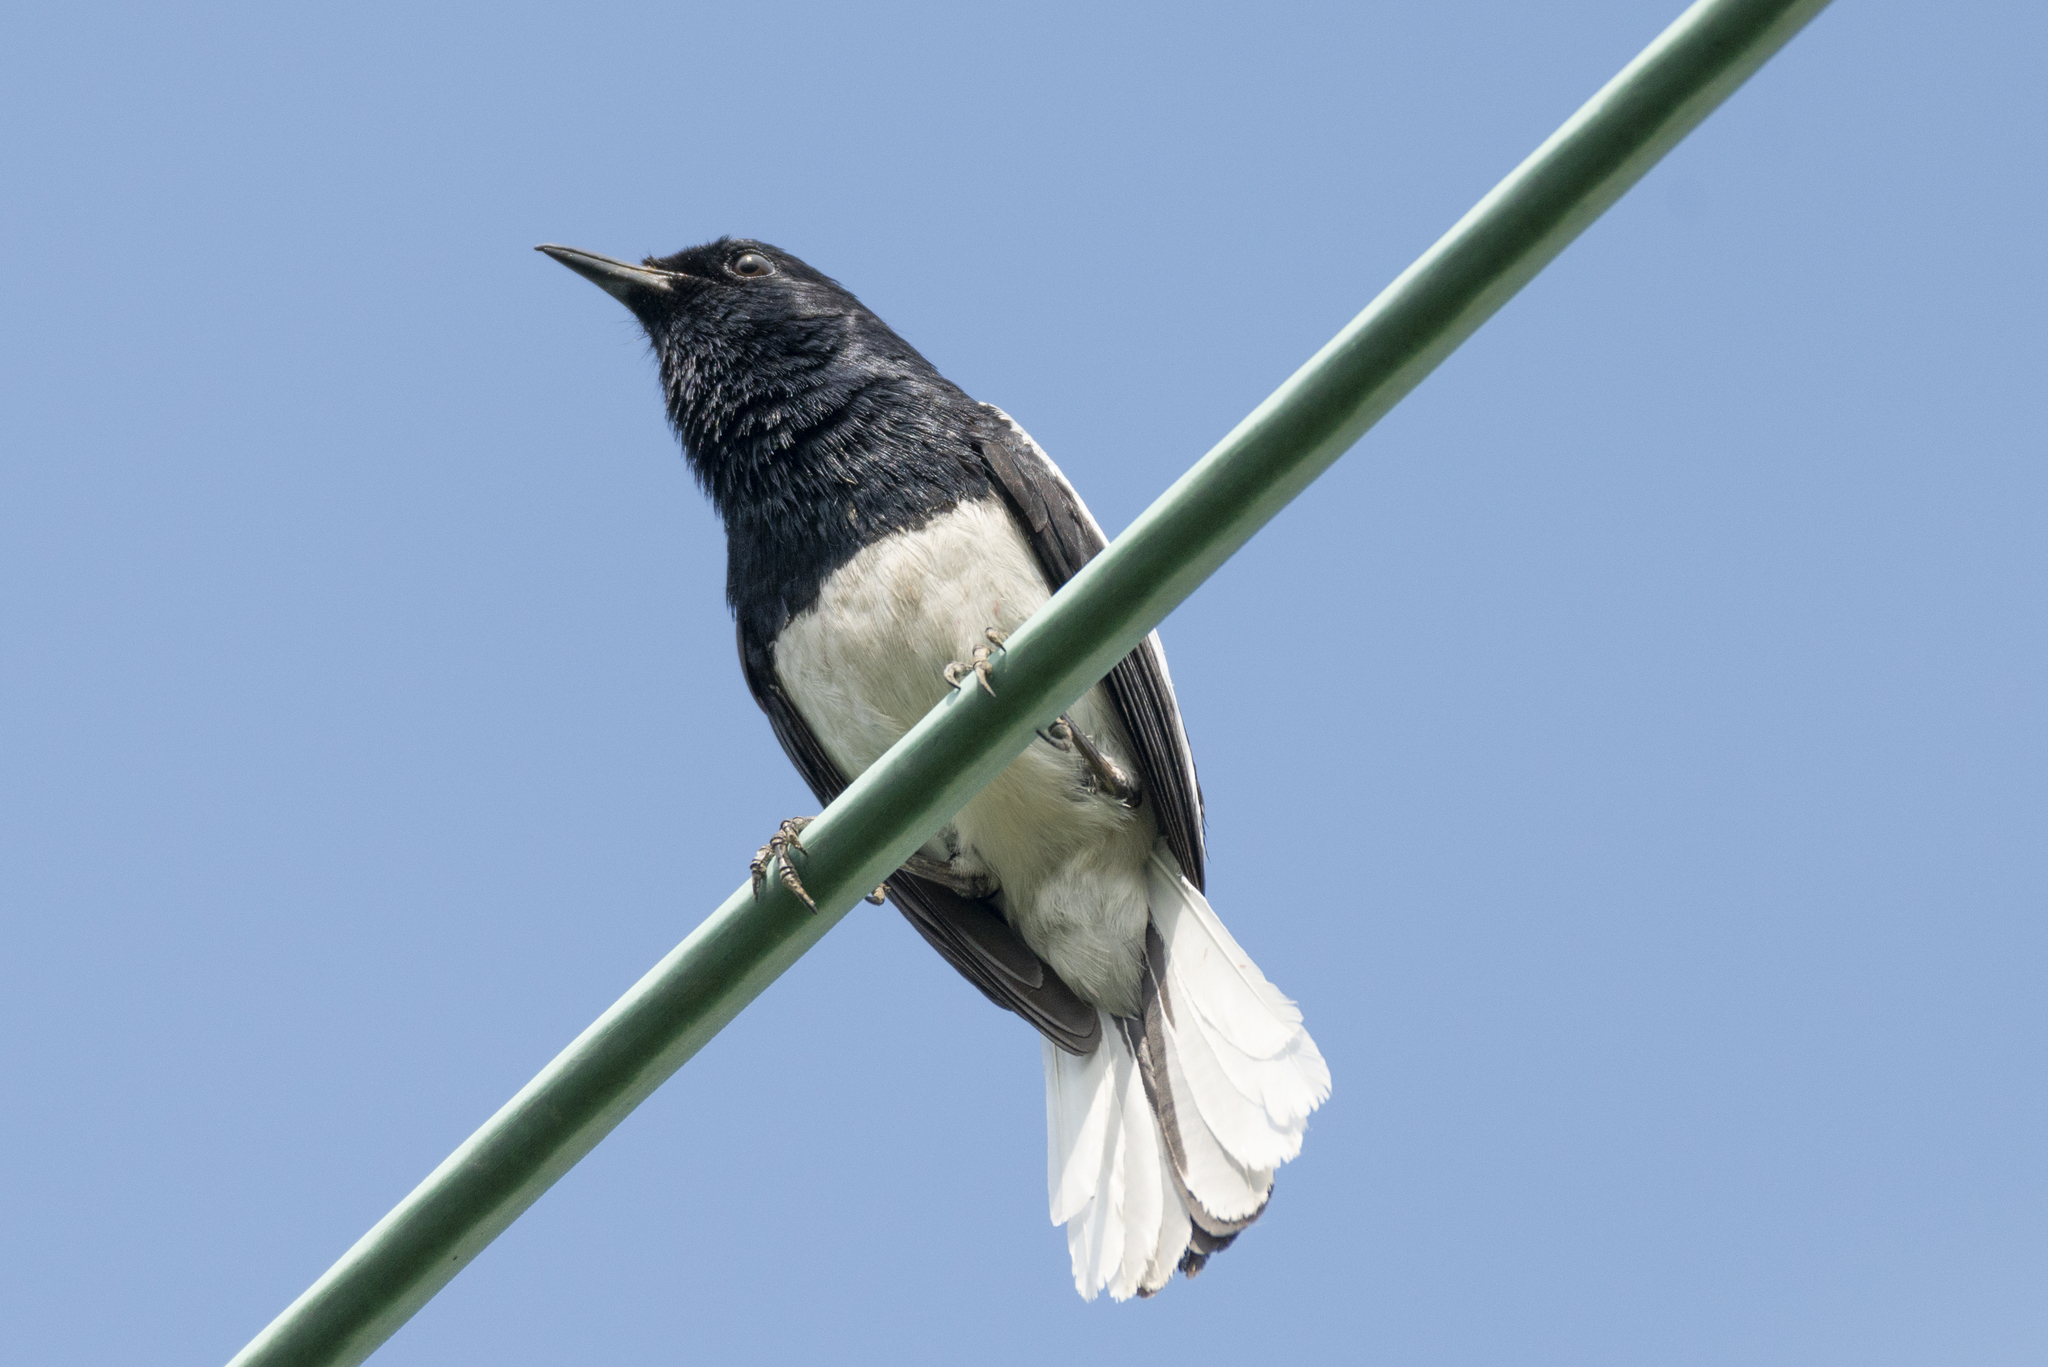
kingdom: Animalia
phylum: Chordata
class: Aves
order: Passeriformes
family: Muscicapidae
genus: Copsychus
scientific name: Copsychus saularis
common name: Oriental magpie-robin
